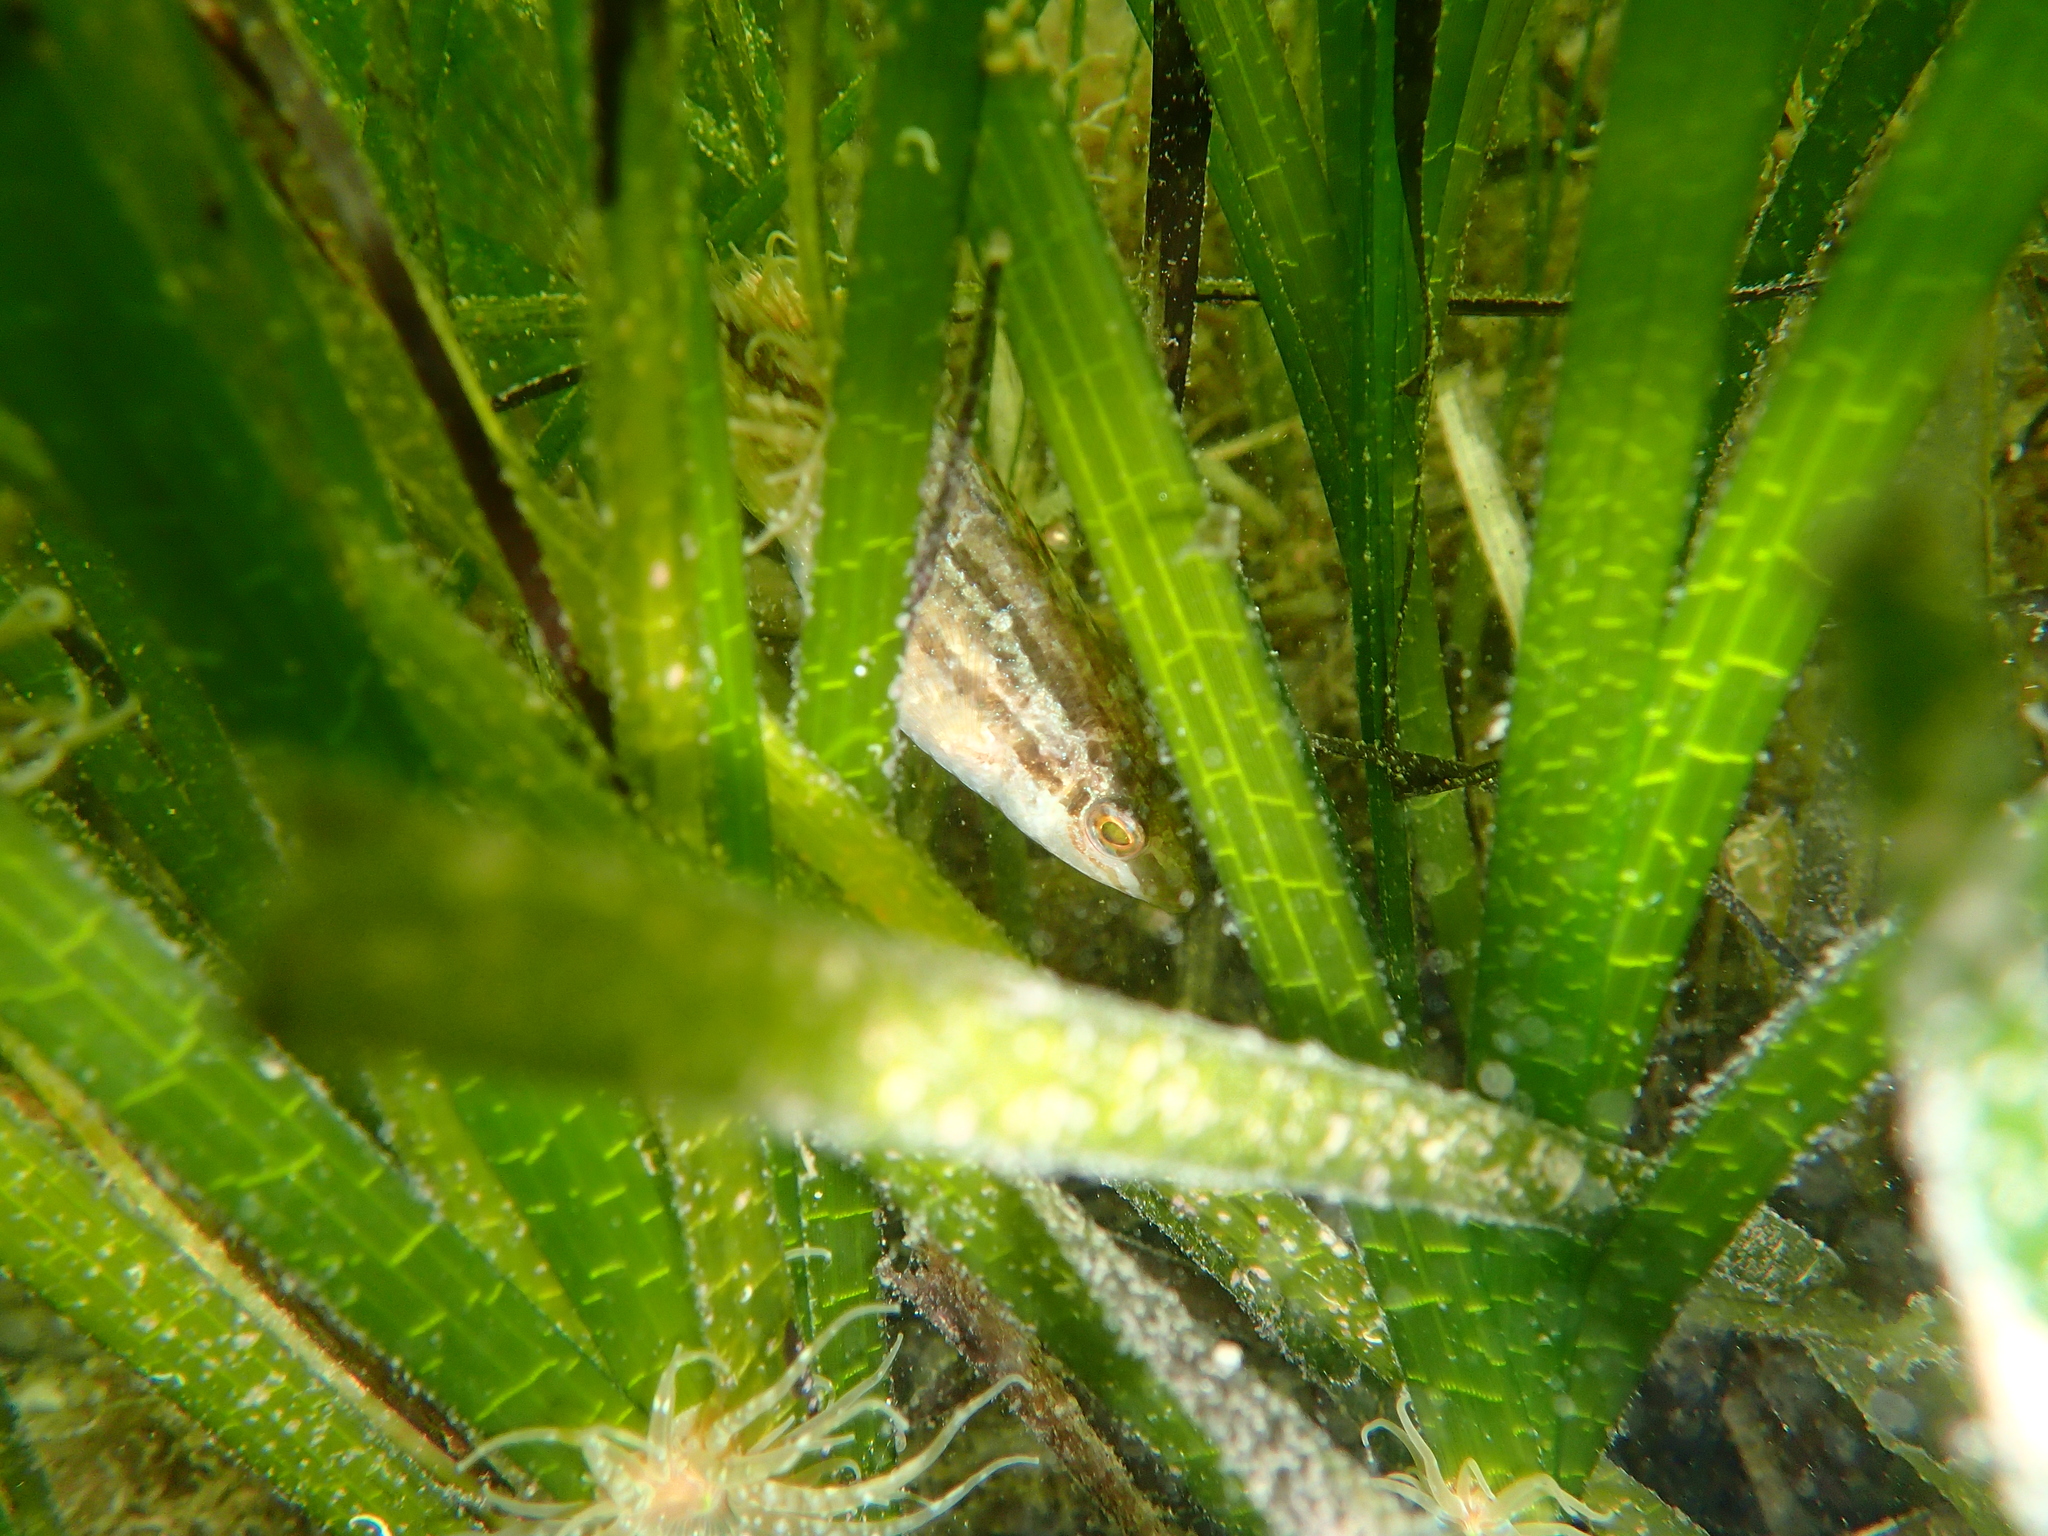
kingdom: Animalia
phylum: Chordata
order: Perciformes
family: Labridae
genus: Symphodus
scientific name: Symphodus cinereus
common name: Grey wrasse
